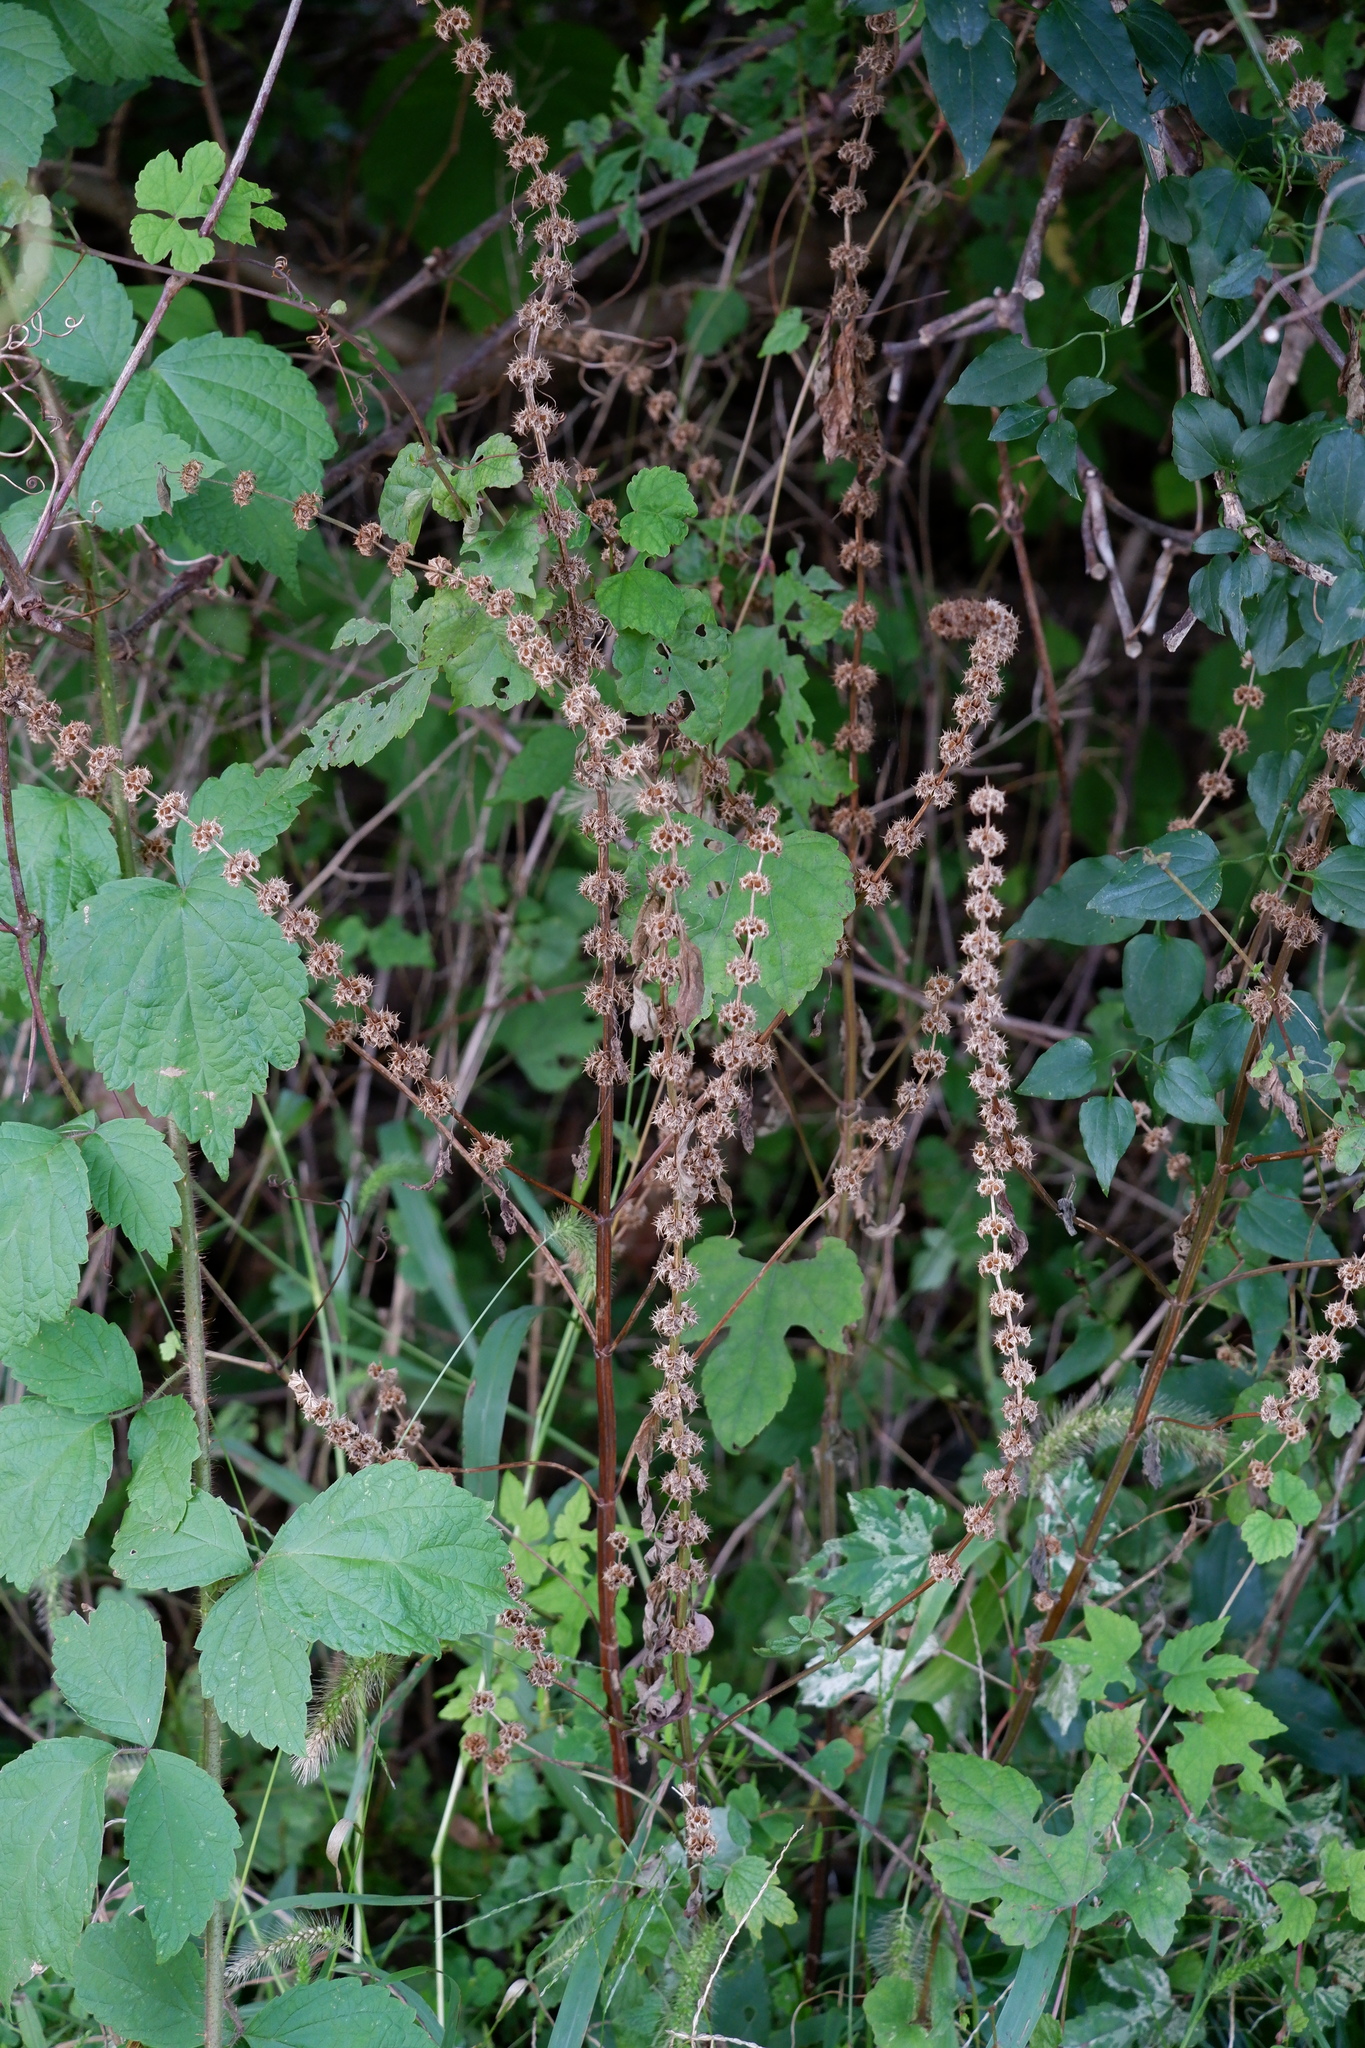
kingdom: Plantae
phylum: Tracheophyta
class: Magnoliopsida
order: Lamiales
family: Lamiaceae
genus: Leonurus
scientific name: Leonurus cardiaca
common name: Motherwort
